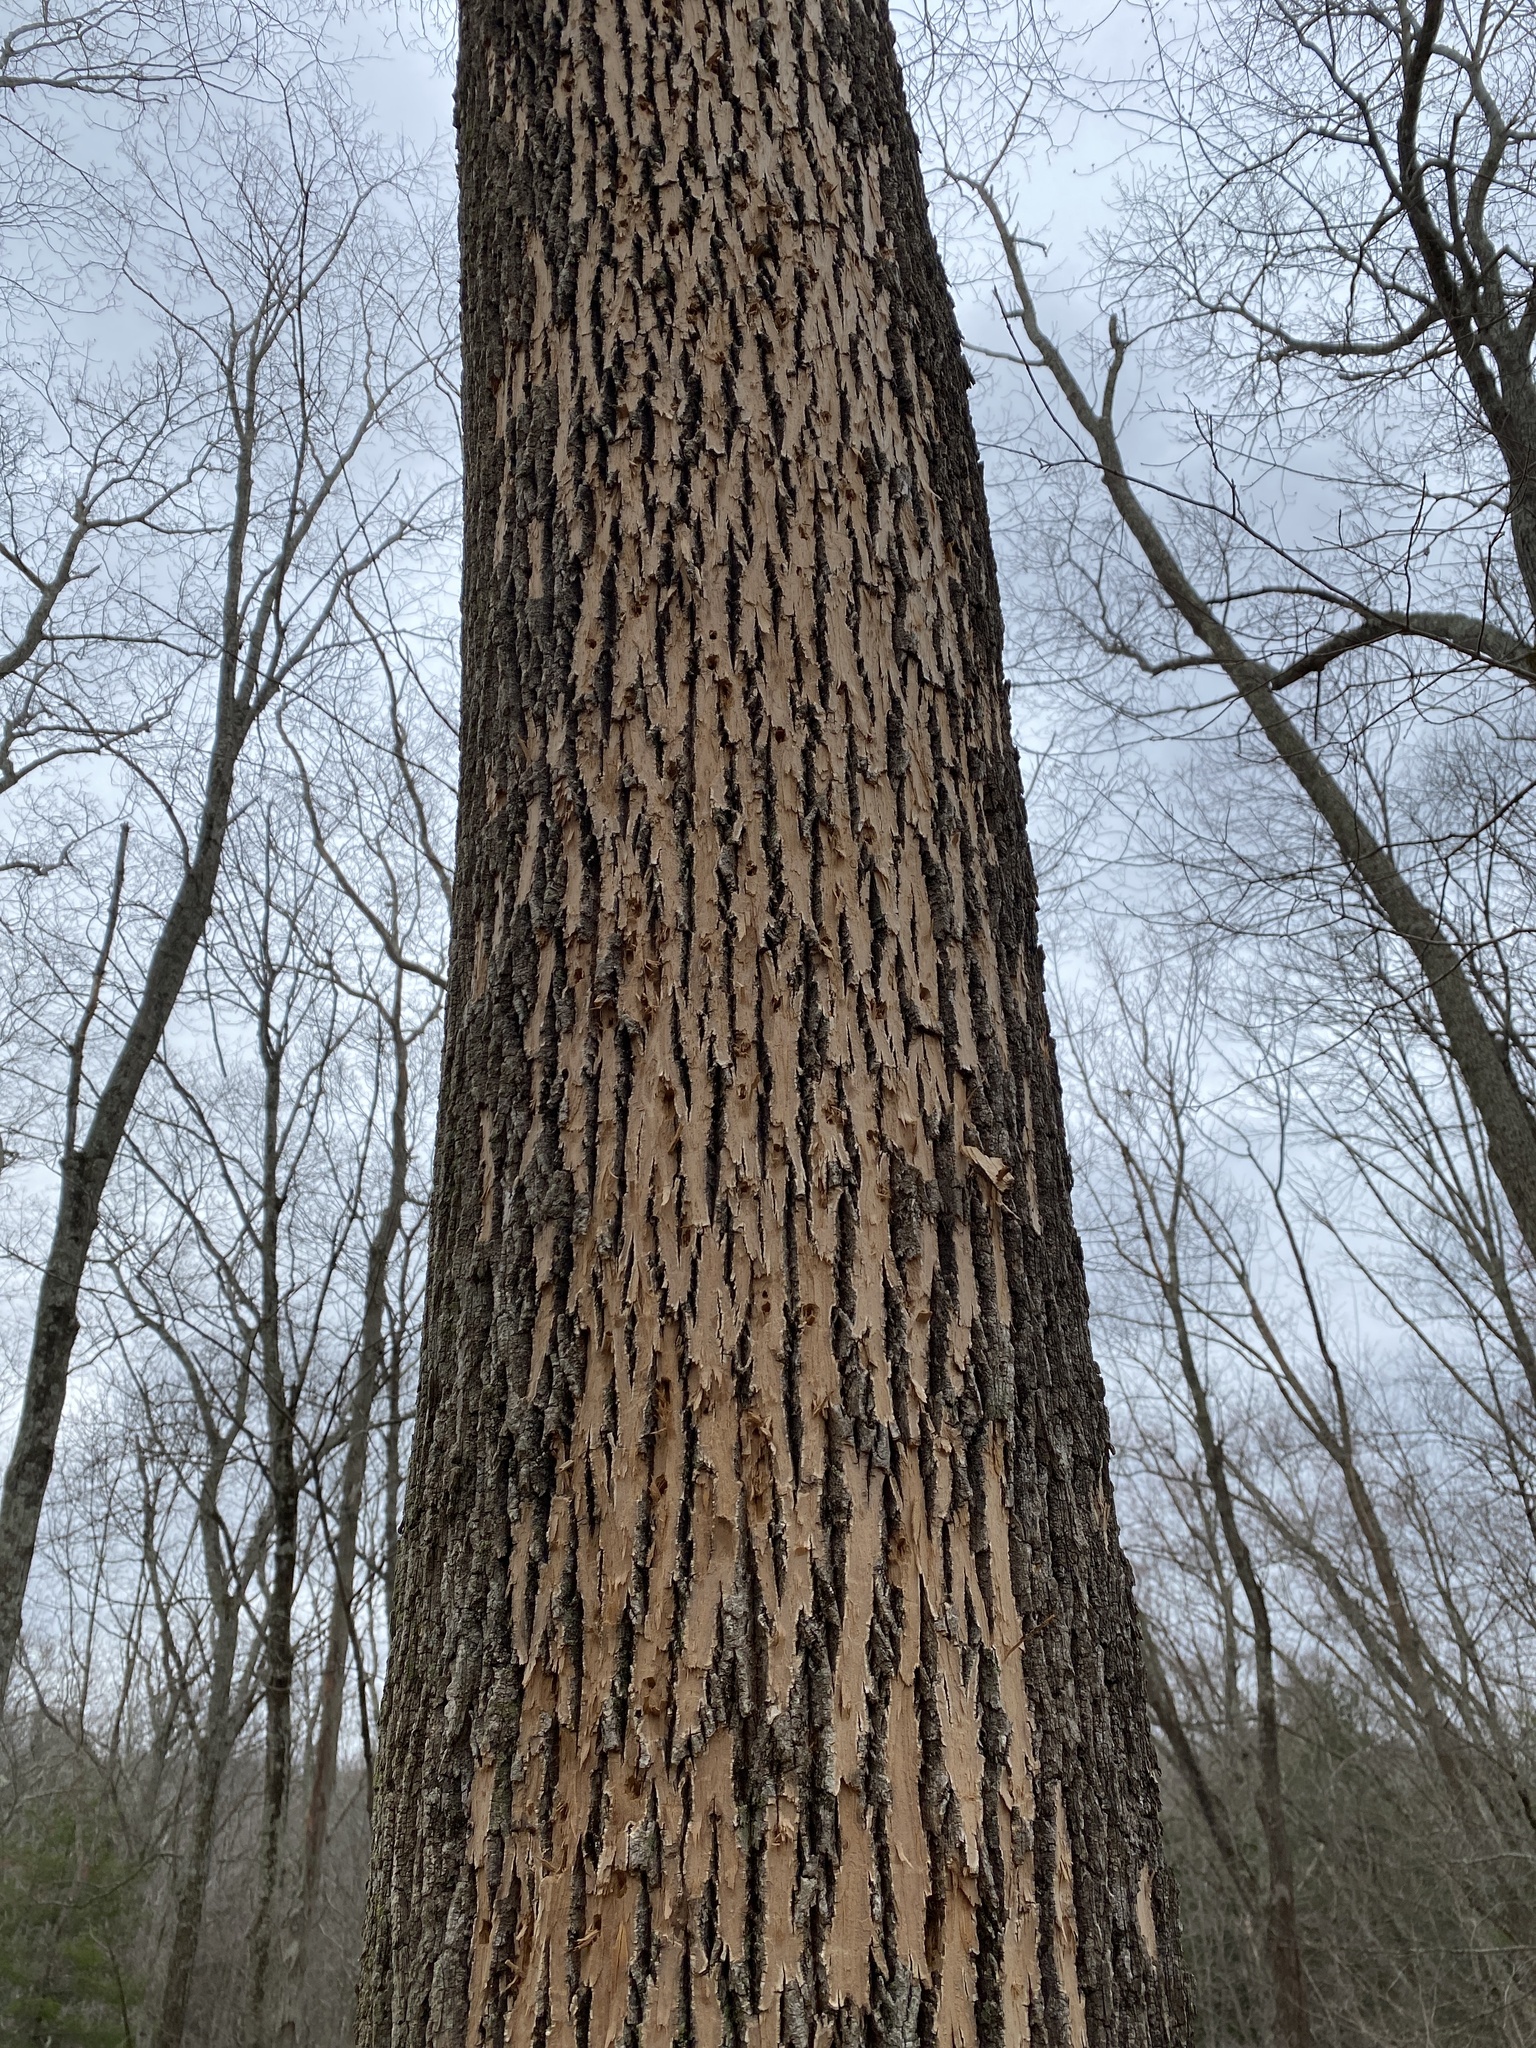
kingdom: Animalia
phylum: Arthropoda
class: Insecta
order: Coleoptera
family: Buprestidae
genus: Agrilus
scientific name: Agrilus planipennis
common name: Emerald ash borer
